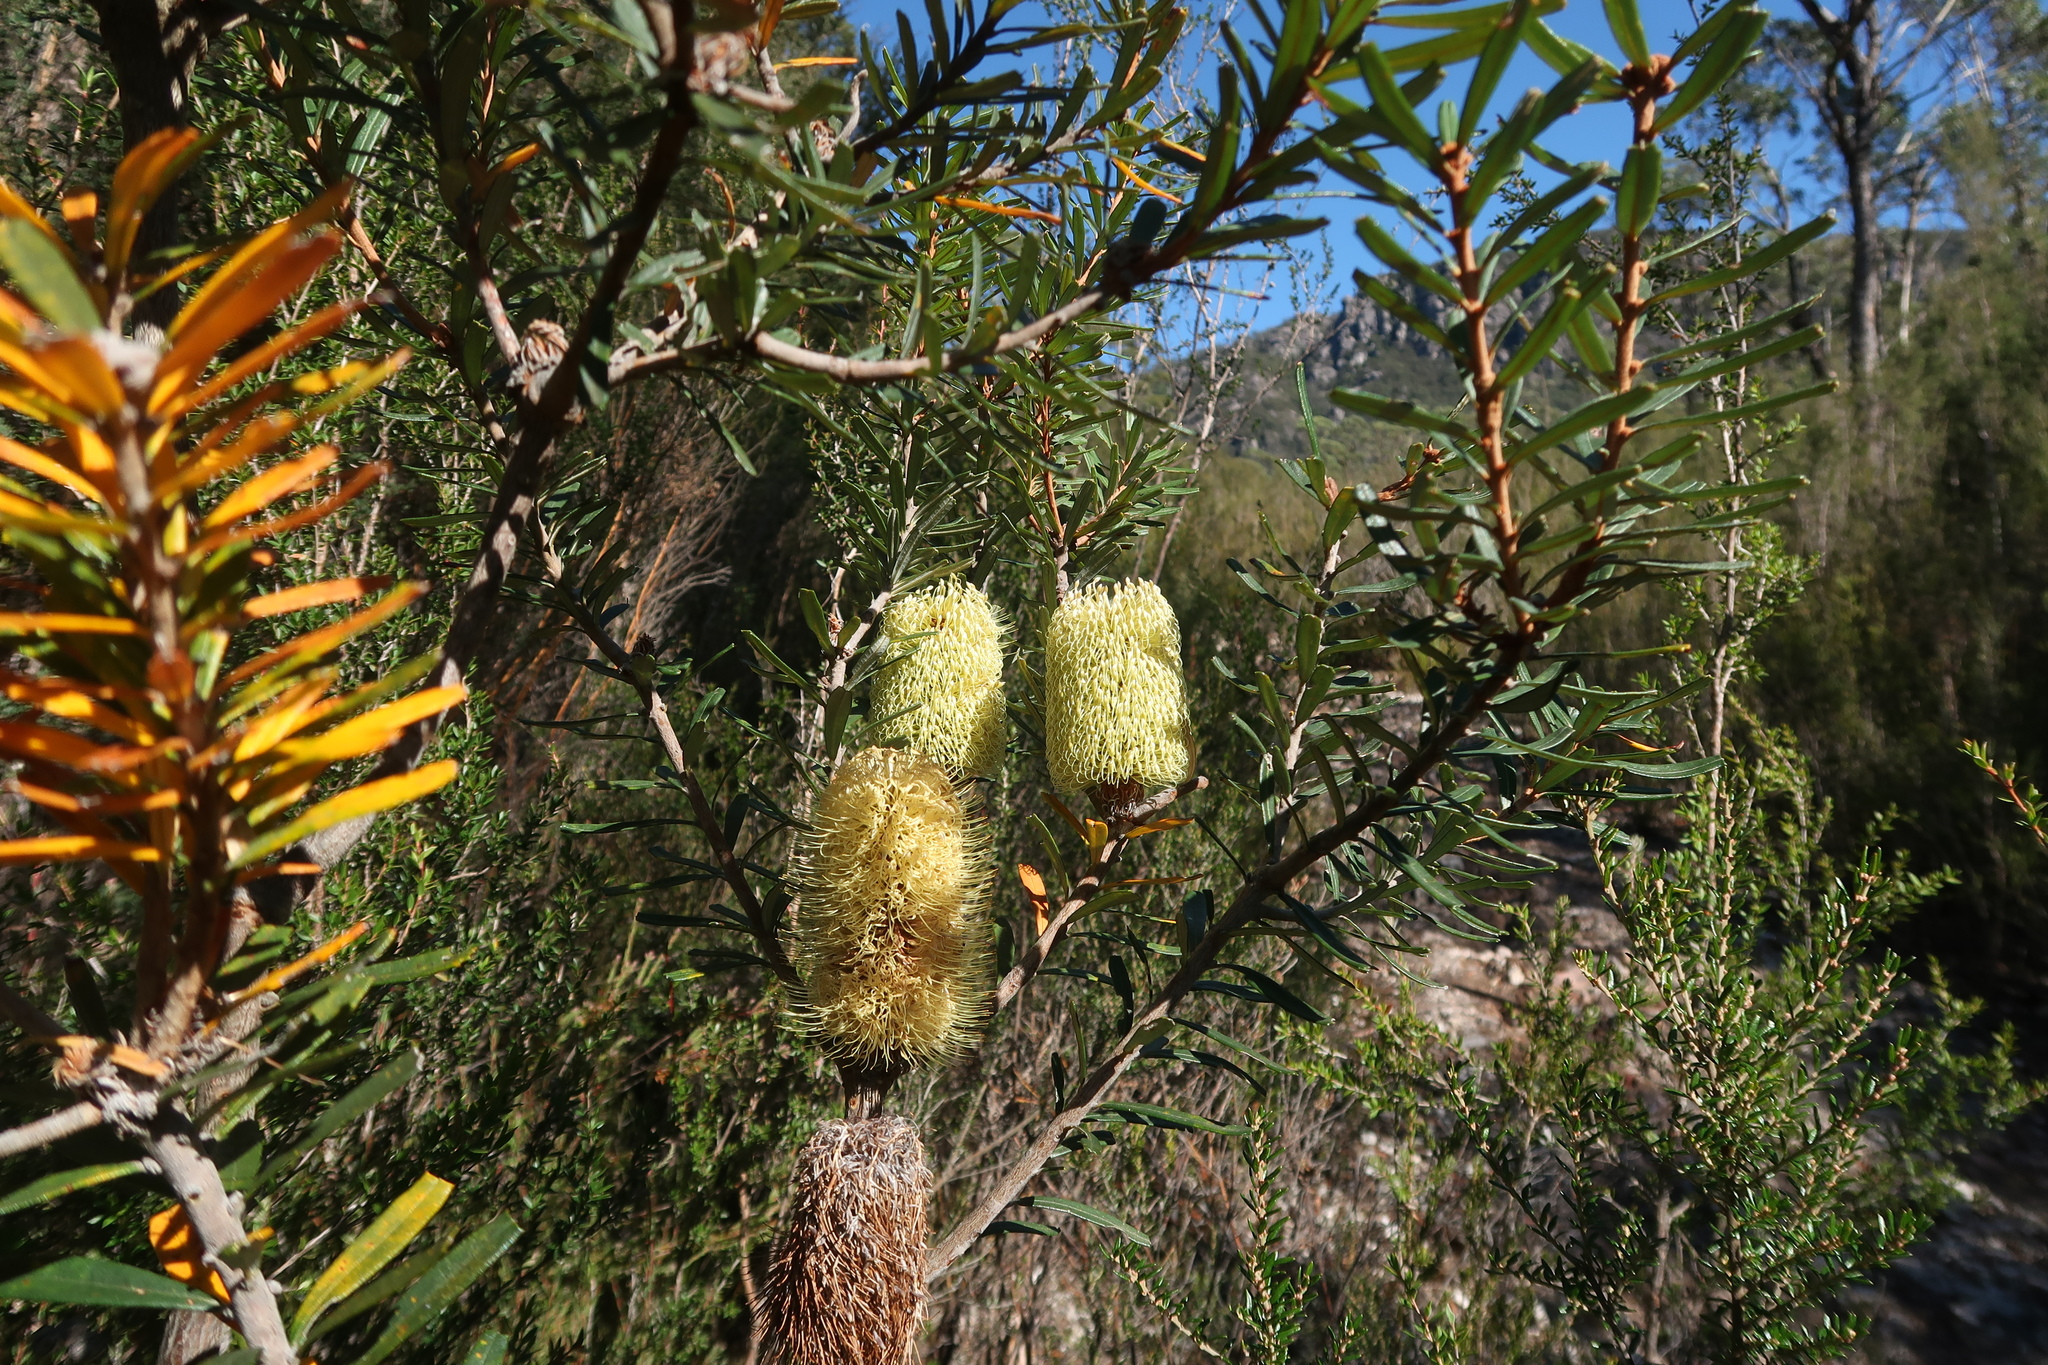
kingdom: Plantae
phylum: Tracheophyta
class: Magnoliopsida
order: Proteales
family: Proteaceae
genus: Banksia
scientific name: Banksia marginata
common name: Silver banksia
